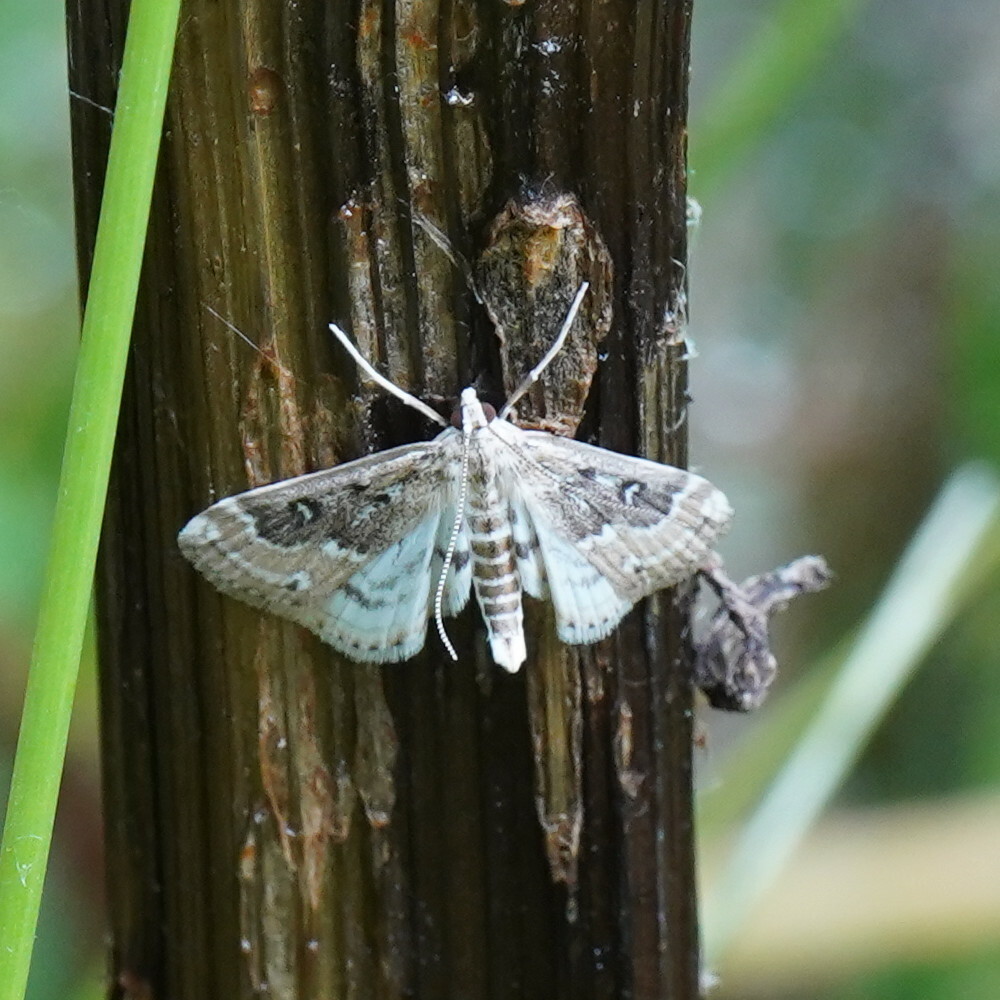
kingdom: Animalia
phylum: Arthropoda
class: Insecta
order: Lepidoptera
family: Crambidae
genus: Parapoynx
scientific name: Parapoynx stratiotata
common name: Ringed china-mark
